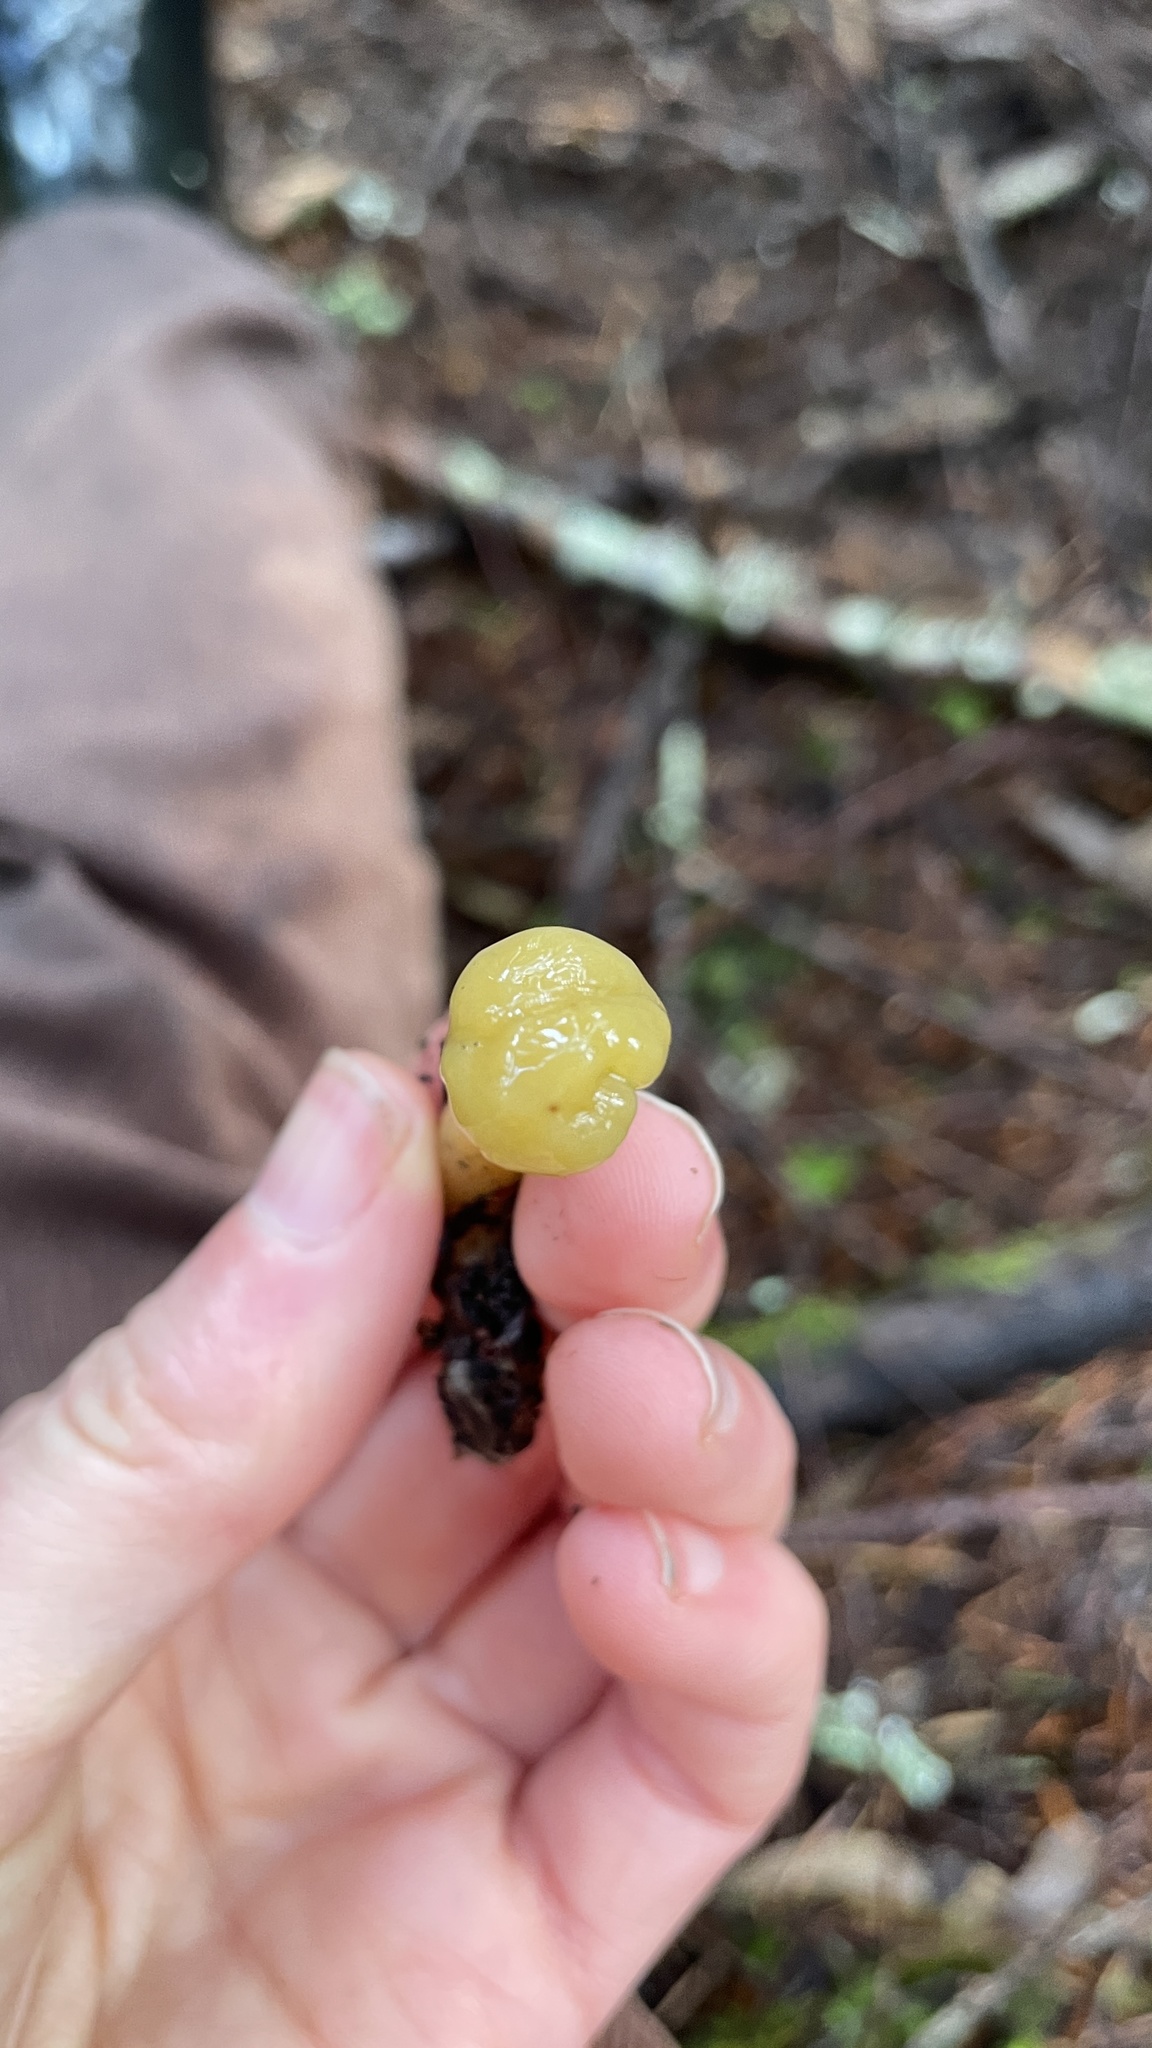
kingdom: Fungi
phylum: Ascomycota
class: Leotiomycetes
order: Leotiales
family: Leotiaceae
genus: Leotia
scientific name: Leotia lubrica
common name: Jellybaby
